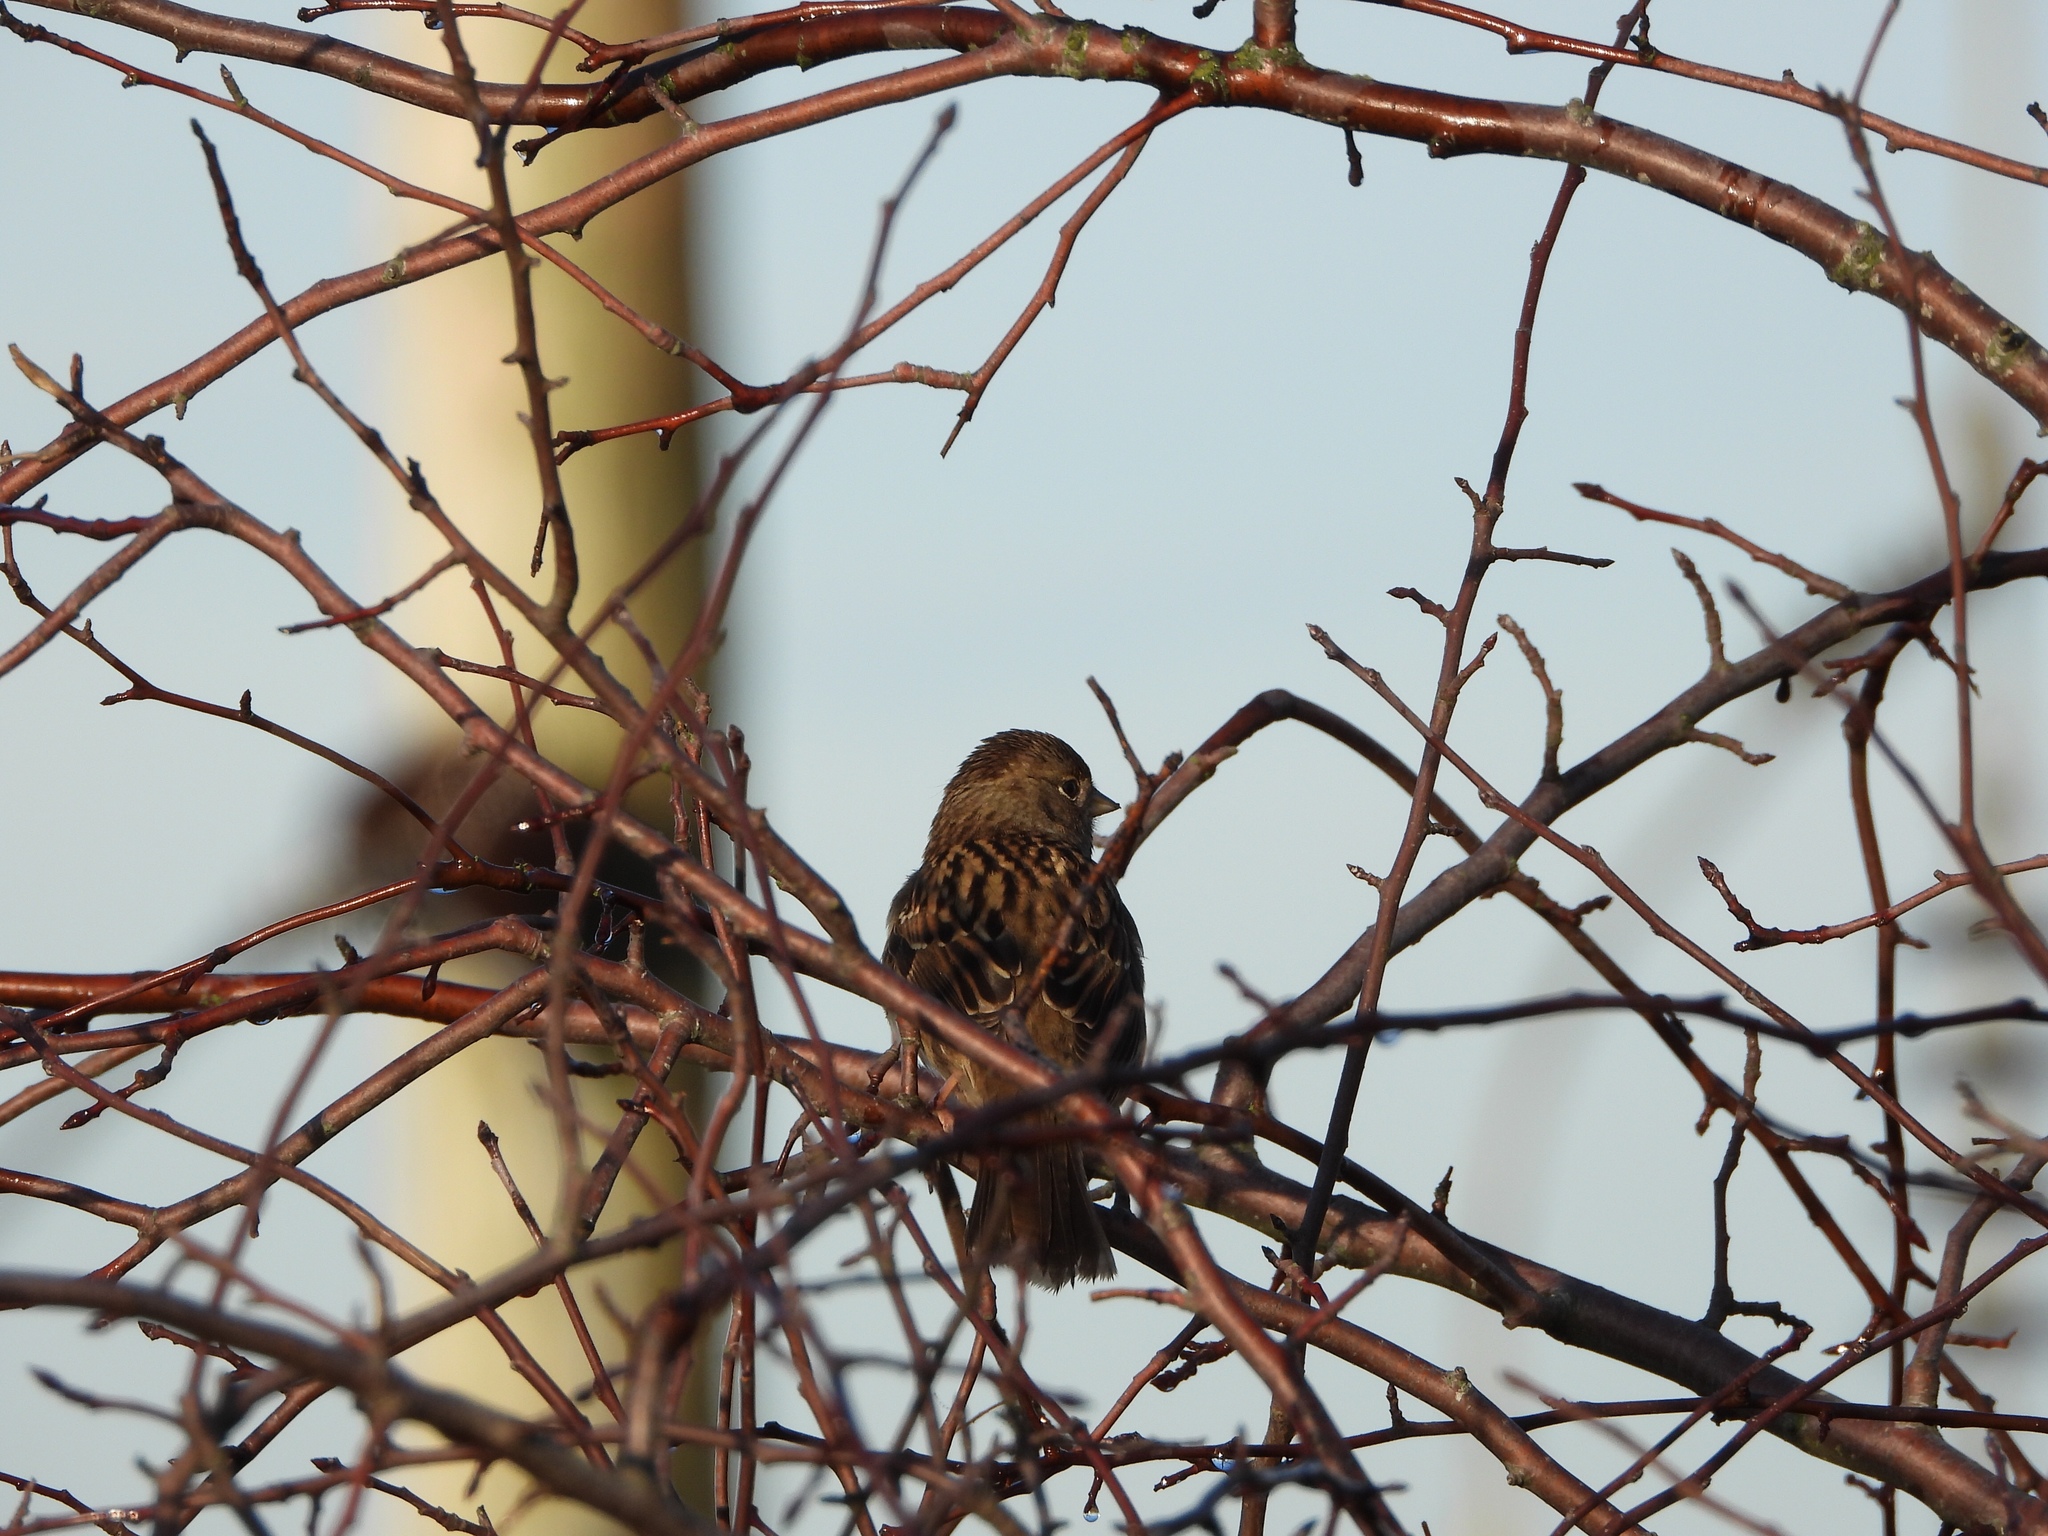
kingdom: Animalia
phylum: Chordata
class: Aves
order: Passeriformes
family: Passerellidae
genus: Zonotrichia
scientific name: Zonotrichia atricapilla
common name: Golden-crowned sparrow
